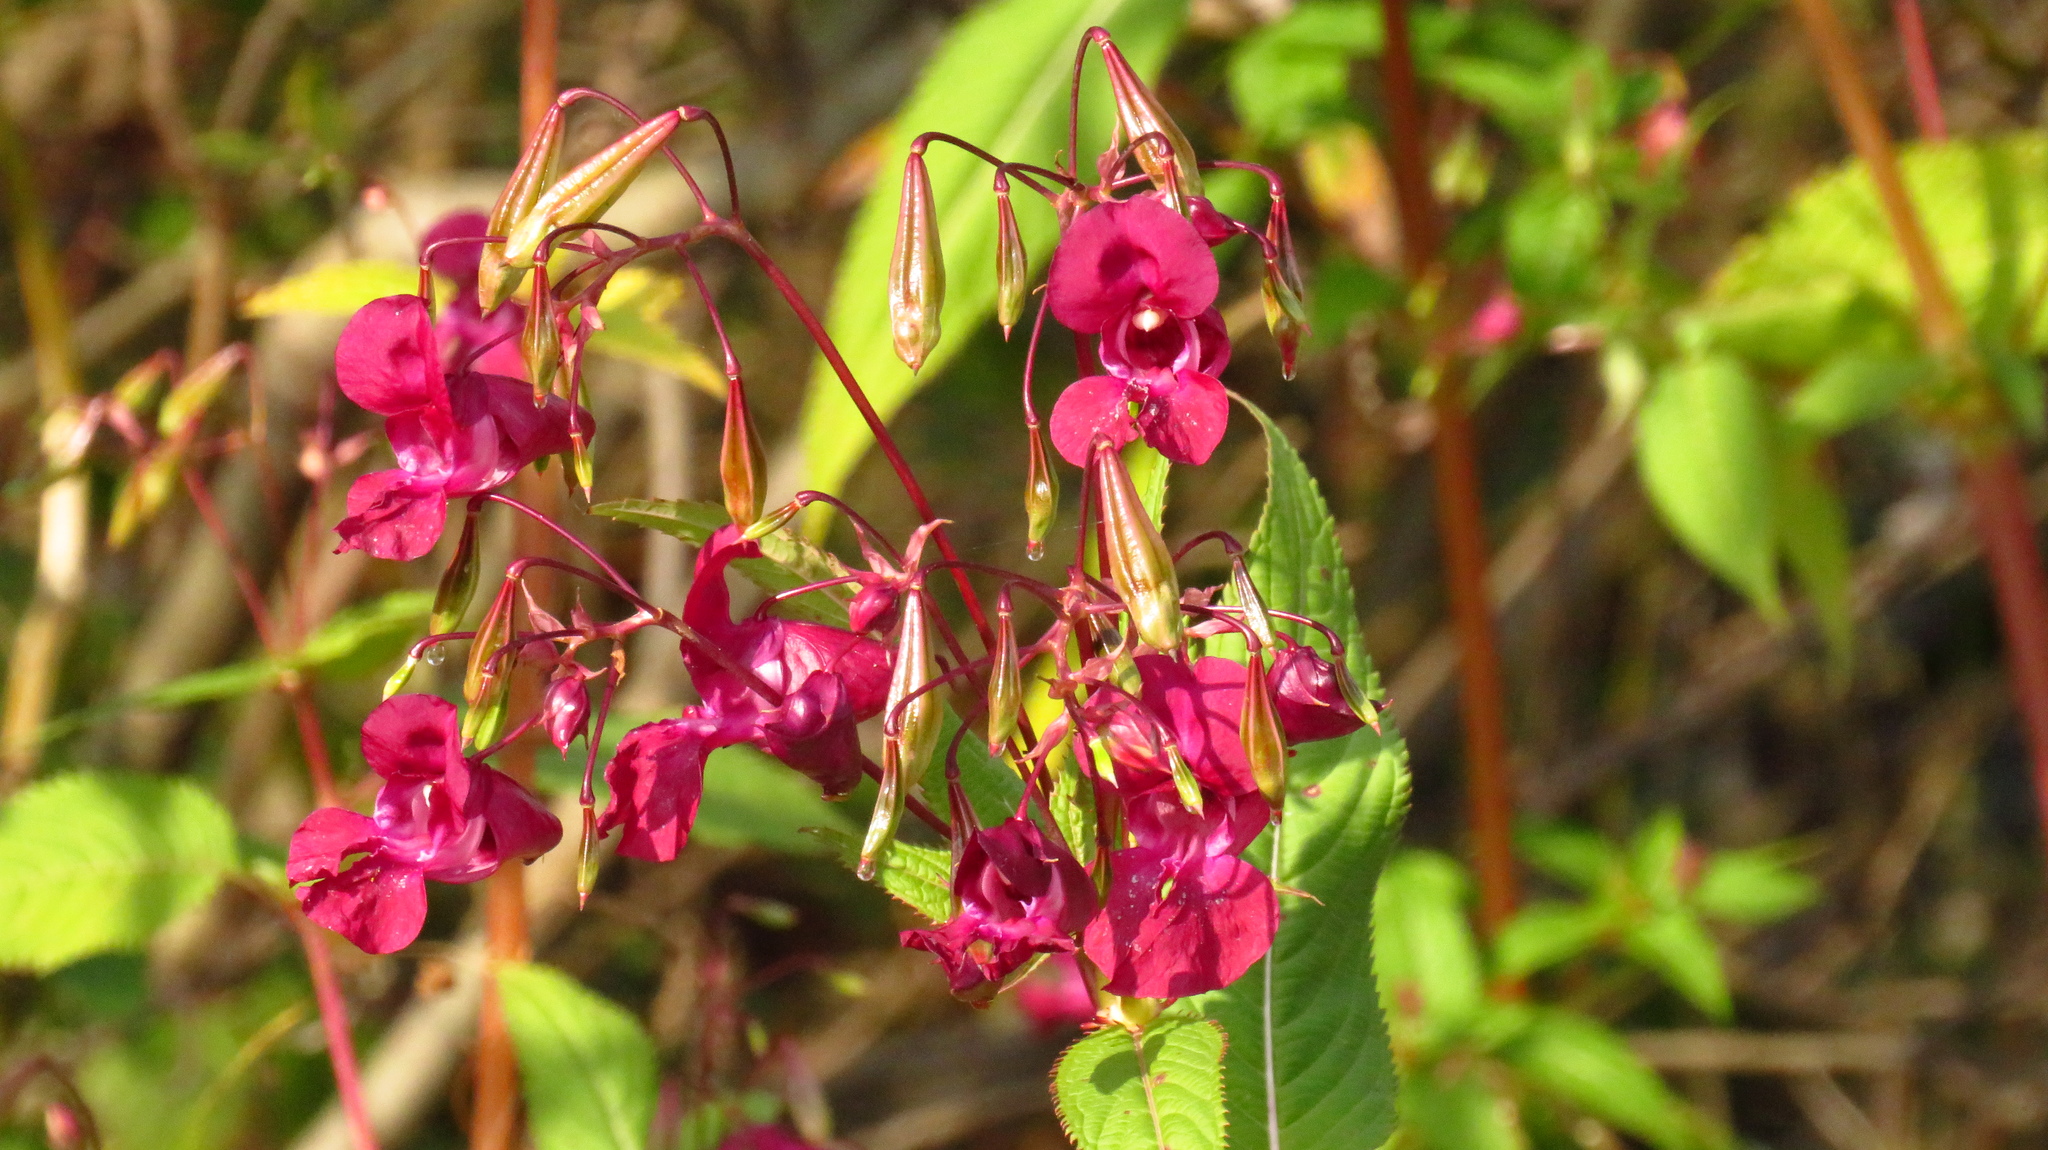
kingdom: Plantae
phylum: Tracheophyta
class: Magnoliopsida
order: Ericales
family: Balsaminaceae
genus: Impatiens
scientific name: Impatiens glandulifera
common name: Himalayan balsam
